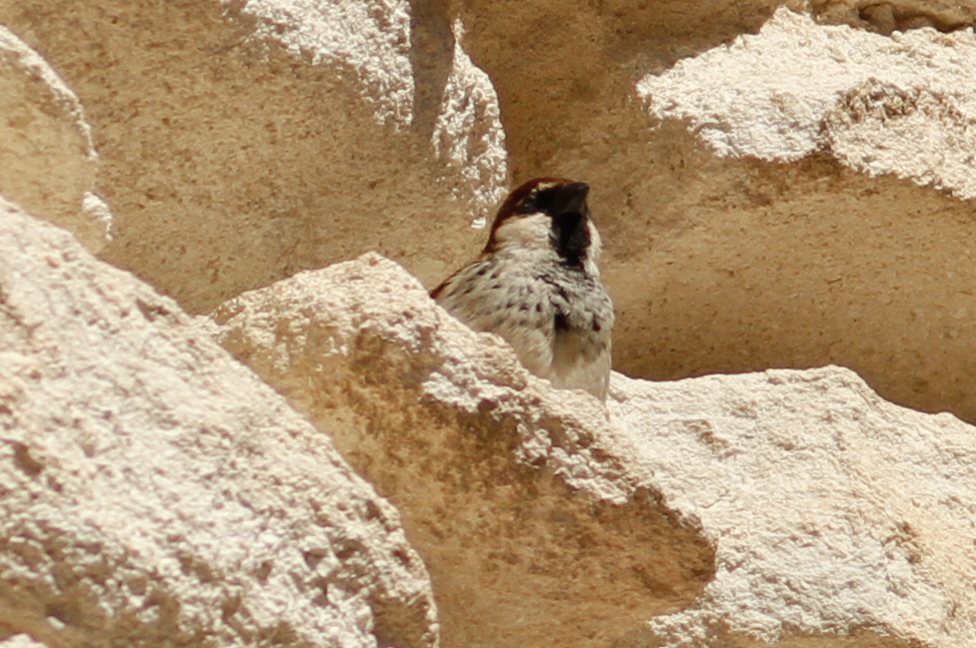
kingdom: Animalia
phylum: Chordata
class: Aves
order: Passeriformes
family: Passeridae
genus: Passer
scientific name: Passer hispaniolensis
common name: Spanish sparrow
